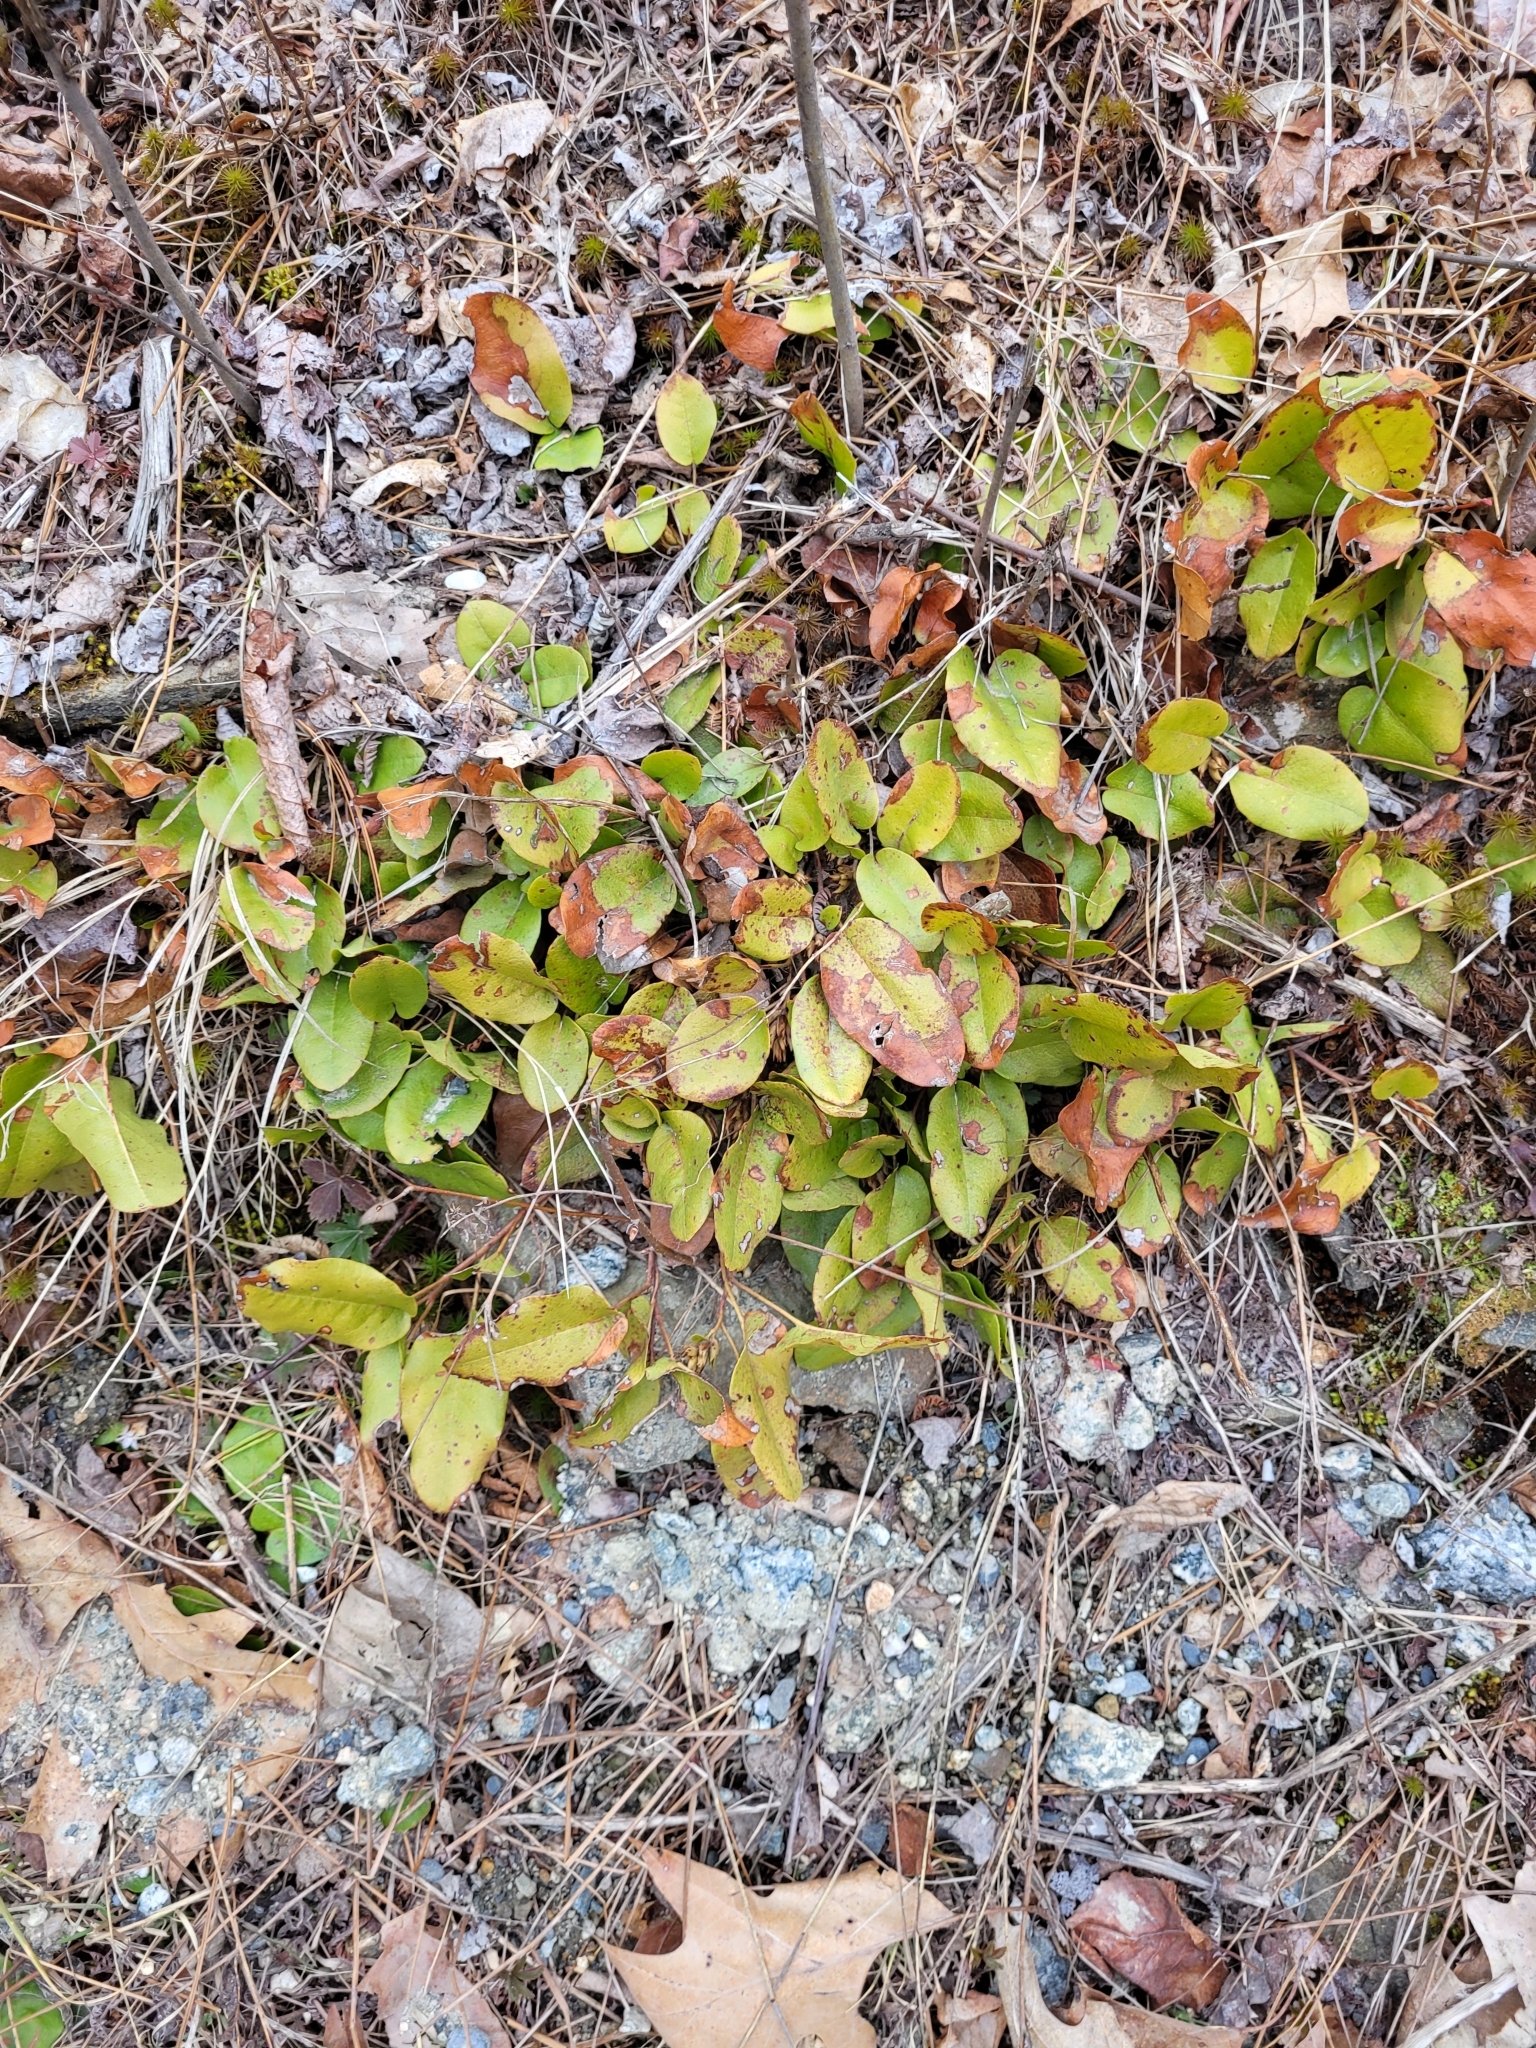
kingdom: Plantae
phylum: Tracheophyta
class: Magnoliopsida
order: Ericales
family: Ericaceae
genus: Epigaea
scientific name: Epigaea repens
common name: Gravelroot
